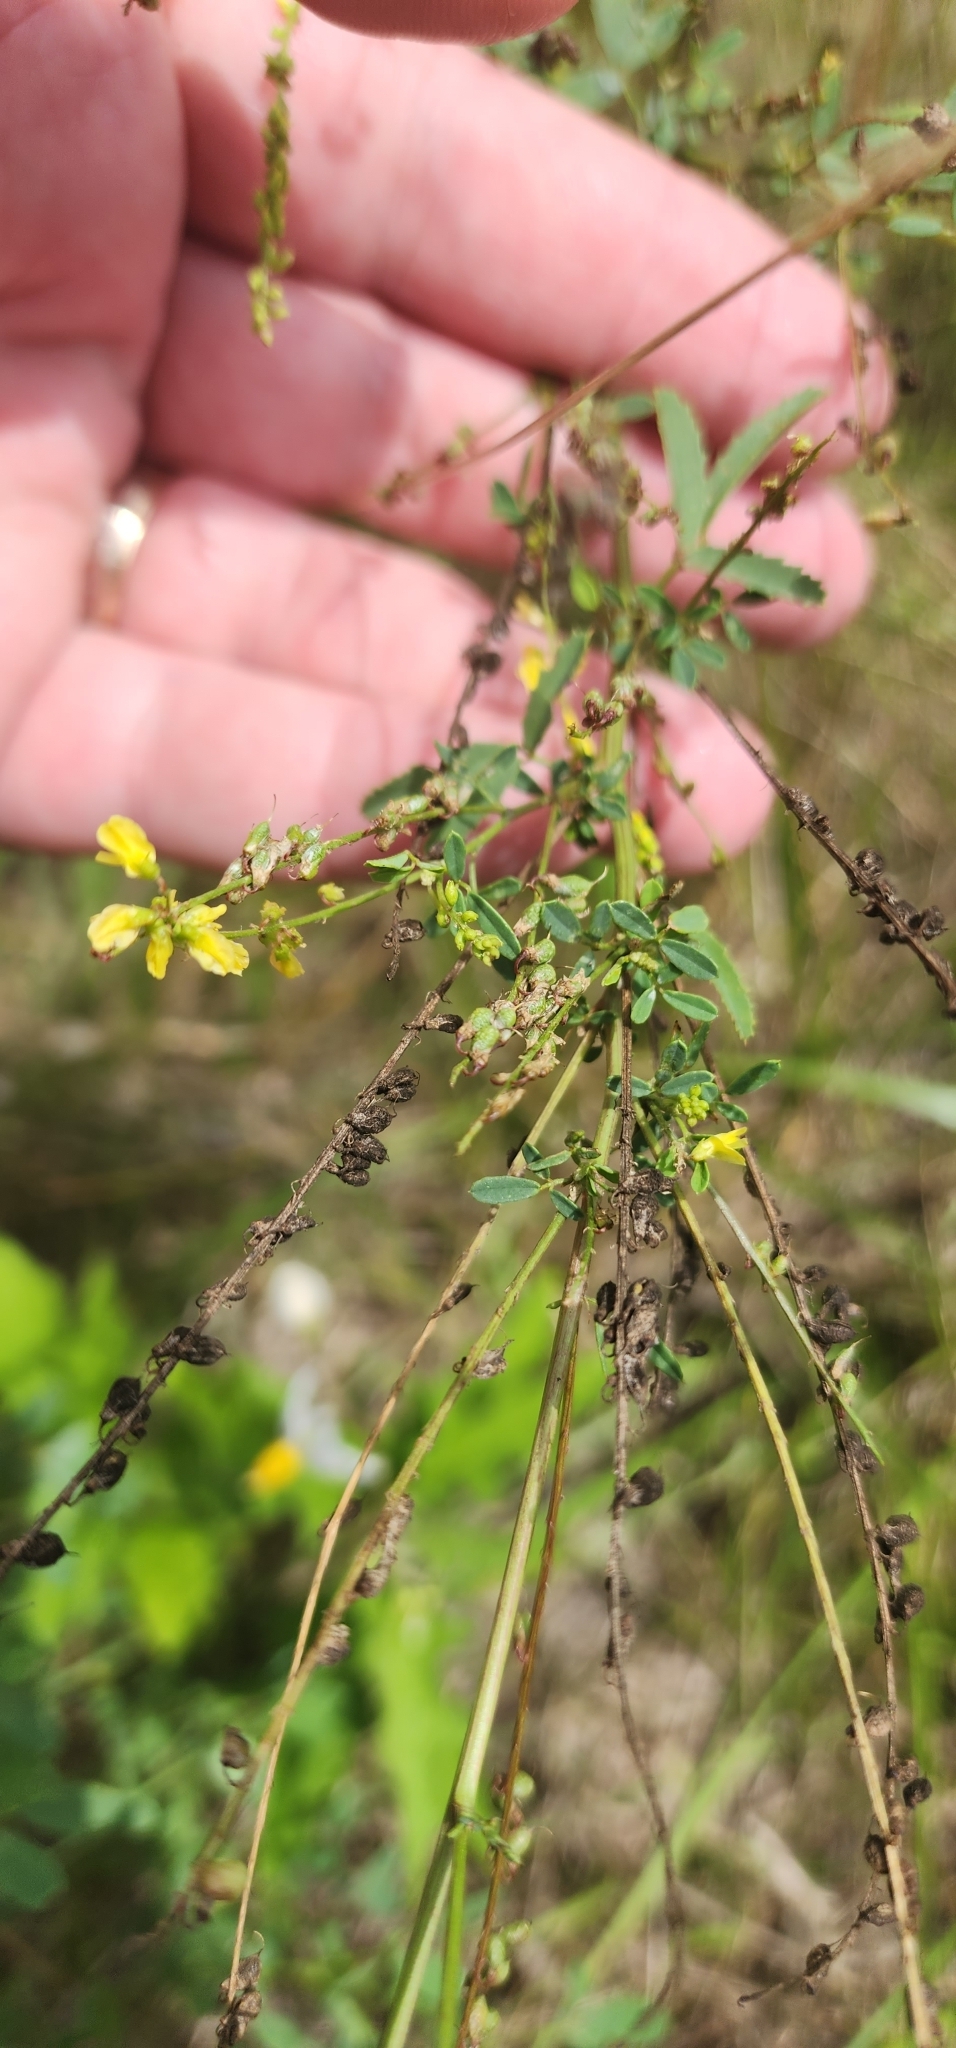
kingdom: Plantae
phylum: Tracheophyta
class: Magnoliopsida
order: Fabales
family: Fabaceae
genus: Melilotus
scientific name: Melilotus officinalis
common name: Sweetclover
